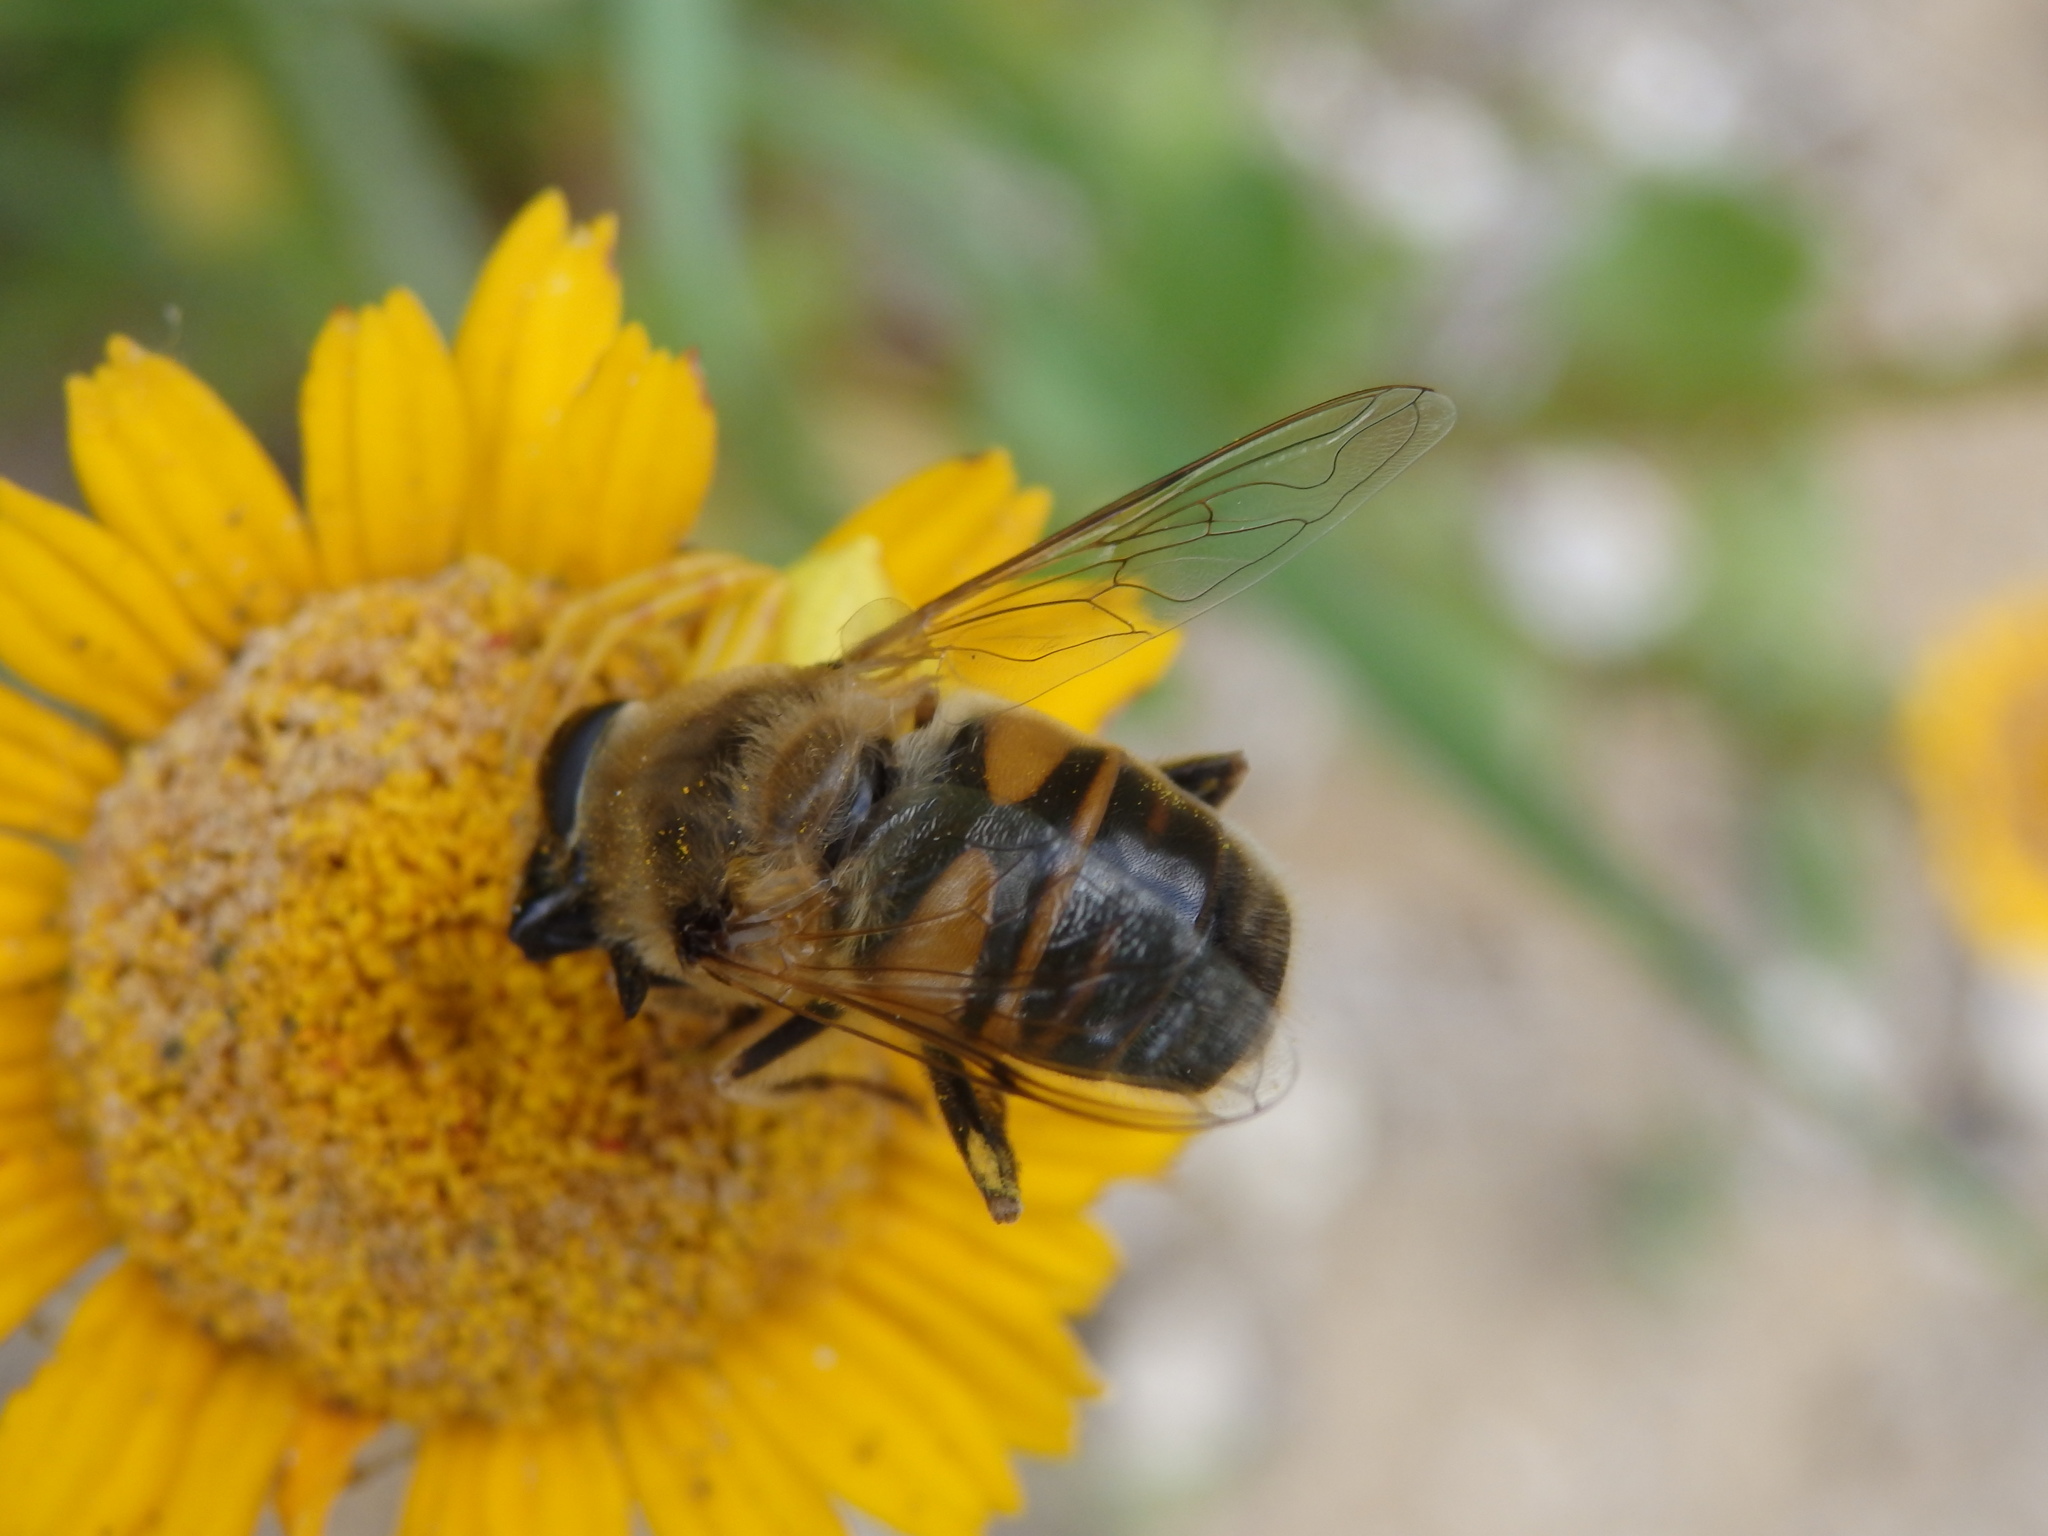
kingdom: Animalia
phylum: Arthropoda
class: Insecta
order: Diptera
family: Syrphidae
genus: Eristalis
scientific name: Eristalis tenax
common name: Drone fly
